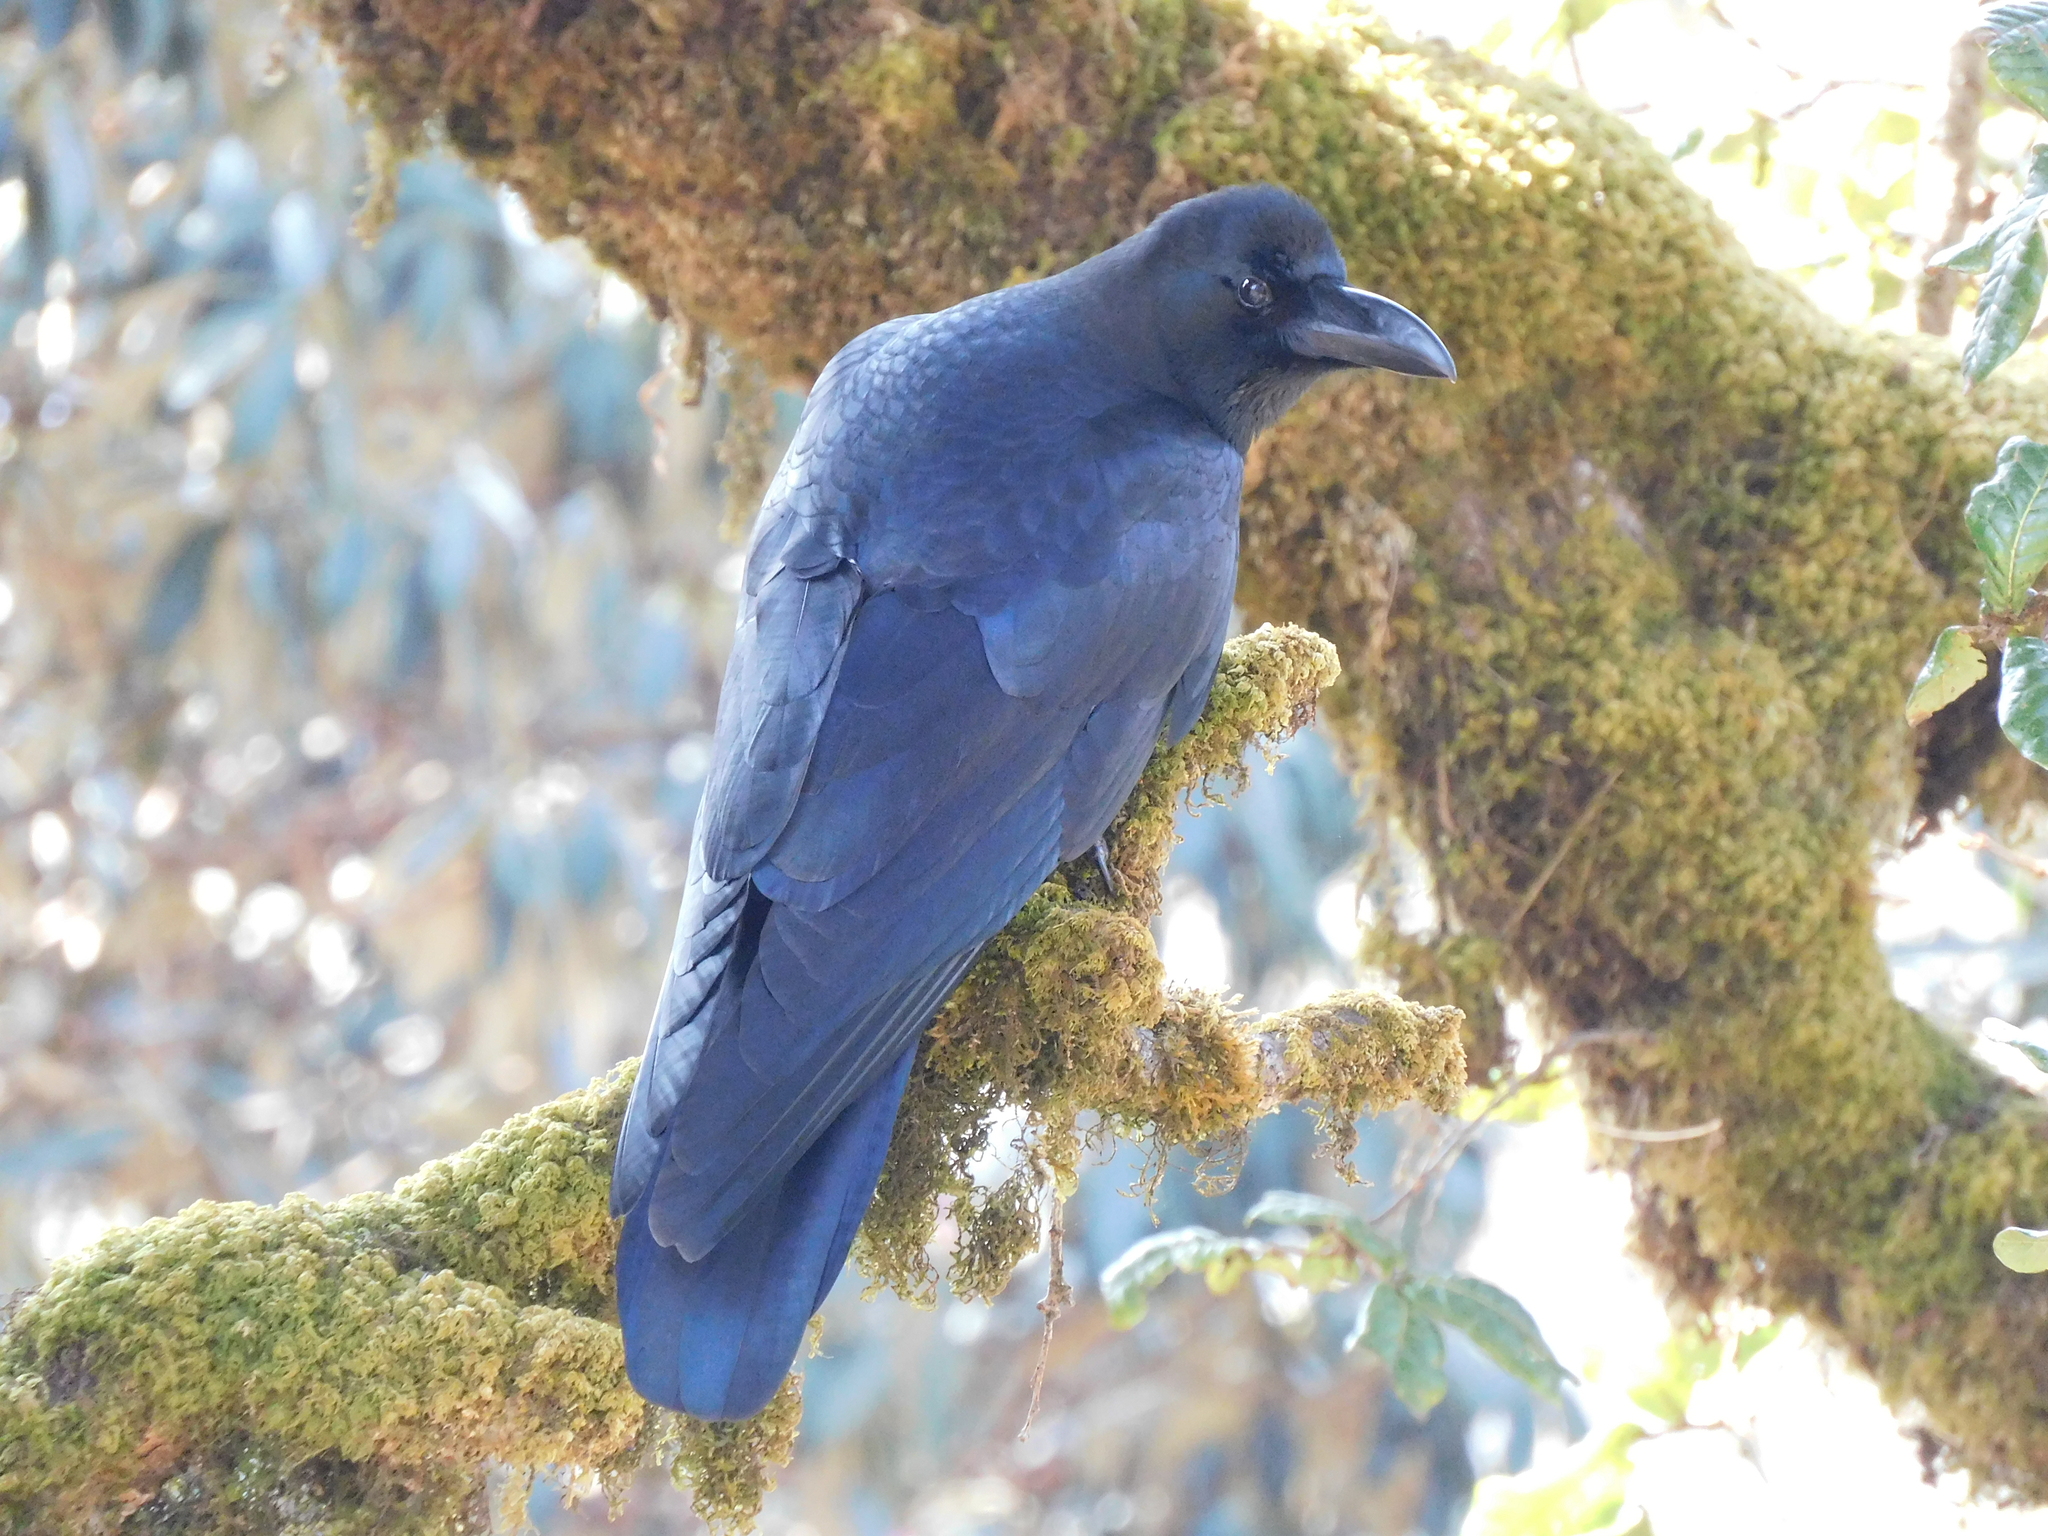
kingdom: Animalia
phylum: Chordata
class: Aves
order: Passeriformes
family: Corvidae
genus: Corvus
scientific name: Corvus macrorhynchos
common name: Large-billed crow
